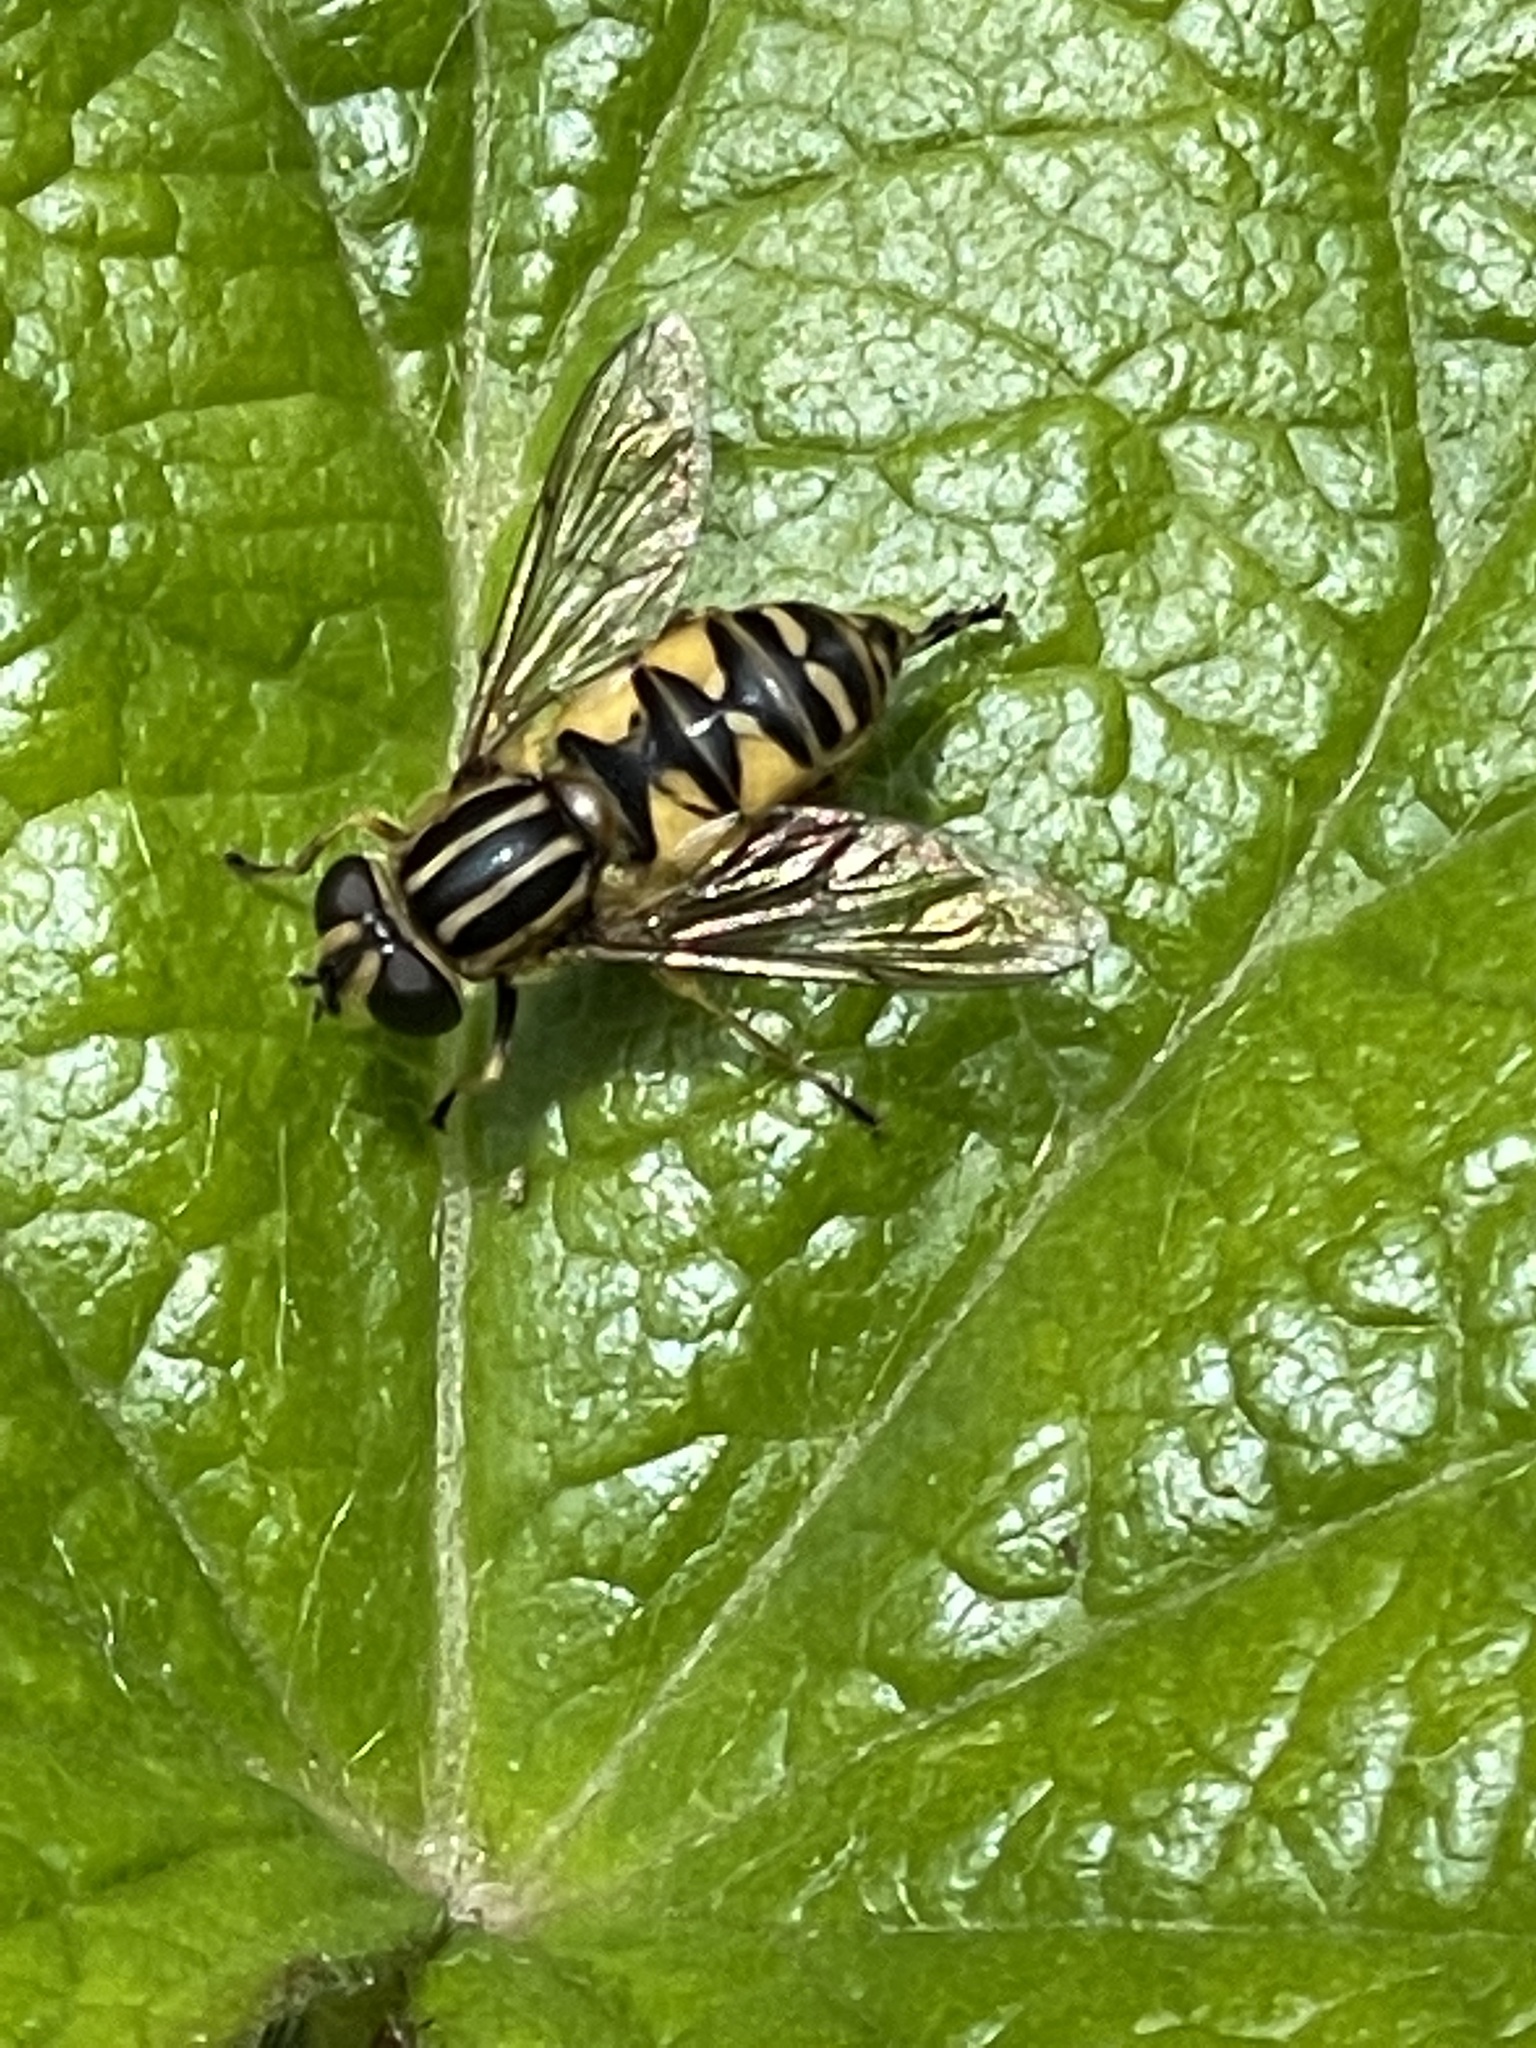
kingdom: Animalia
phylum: Arthropoda
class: Insecta
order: Diptera
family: Syrphidae
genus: Helophilus
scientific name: Helophilus pendulus
